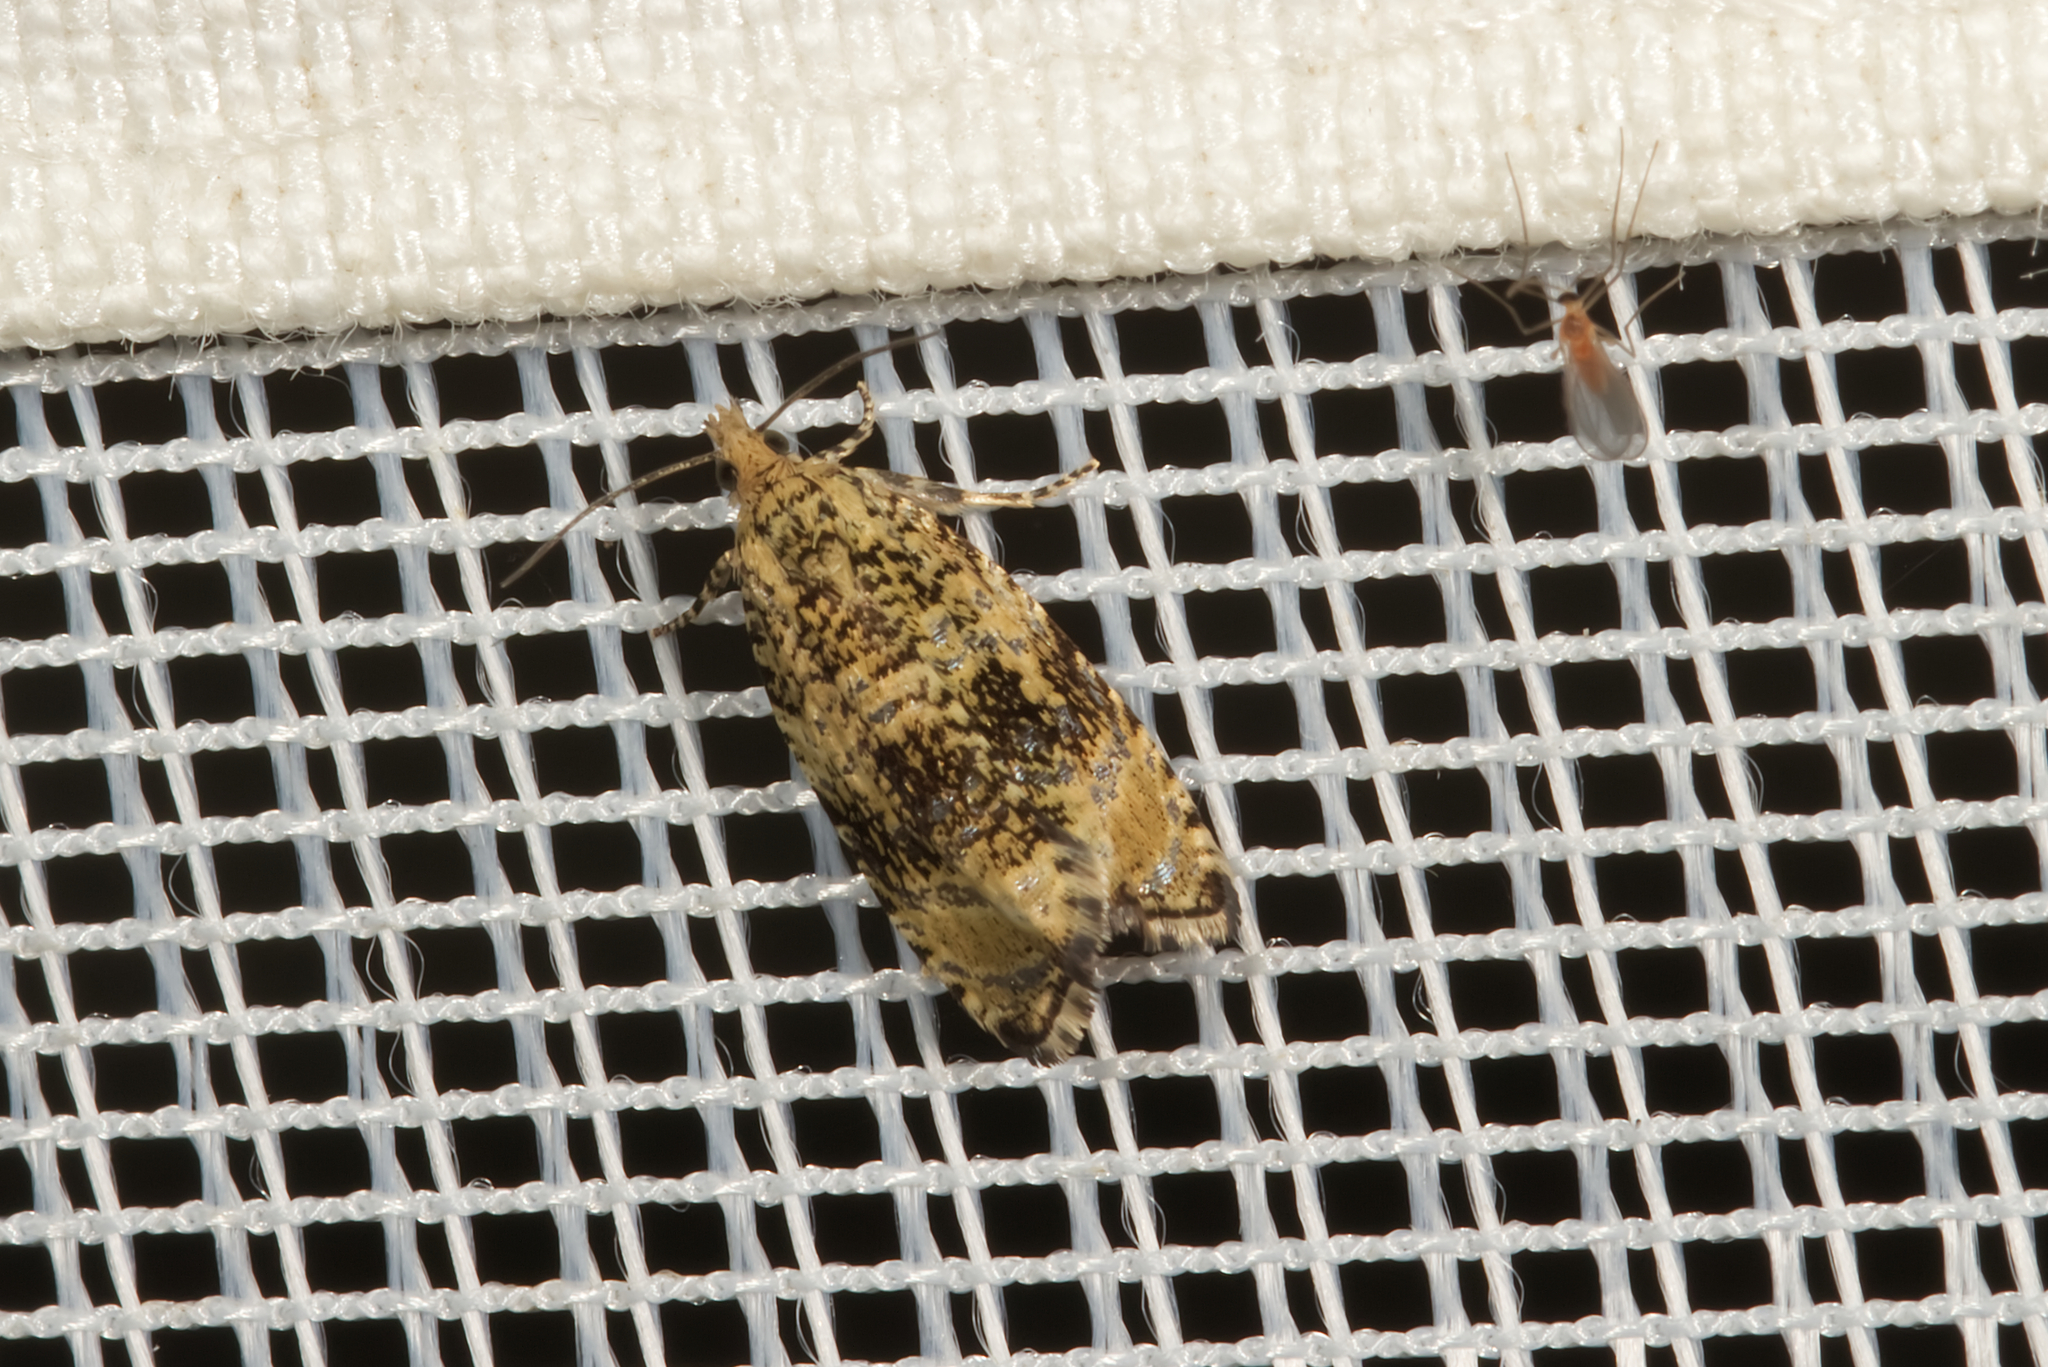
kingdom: Animalia
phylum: Arthropoda
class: Insecta
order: Lepidoptera
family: Tortricidae
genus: Syricoris
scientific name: Syricoris lacunana
